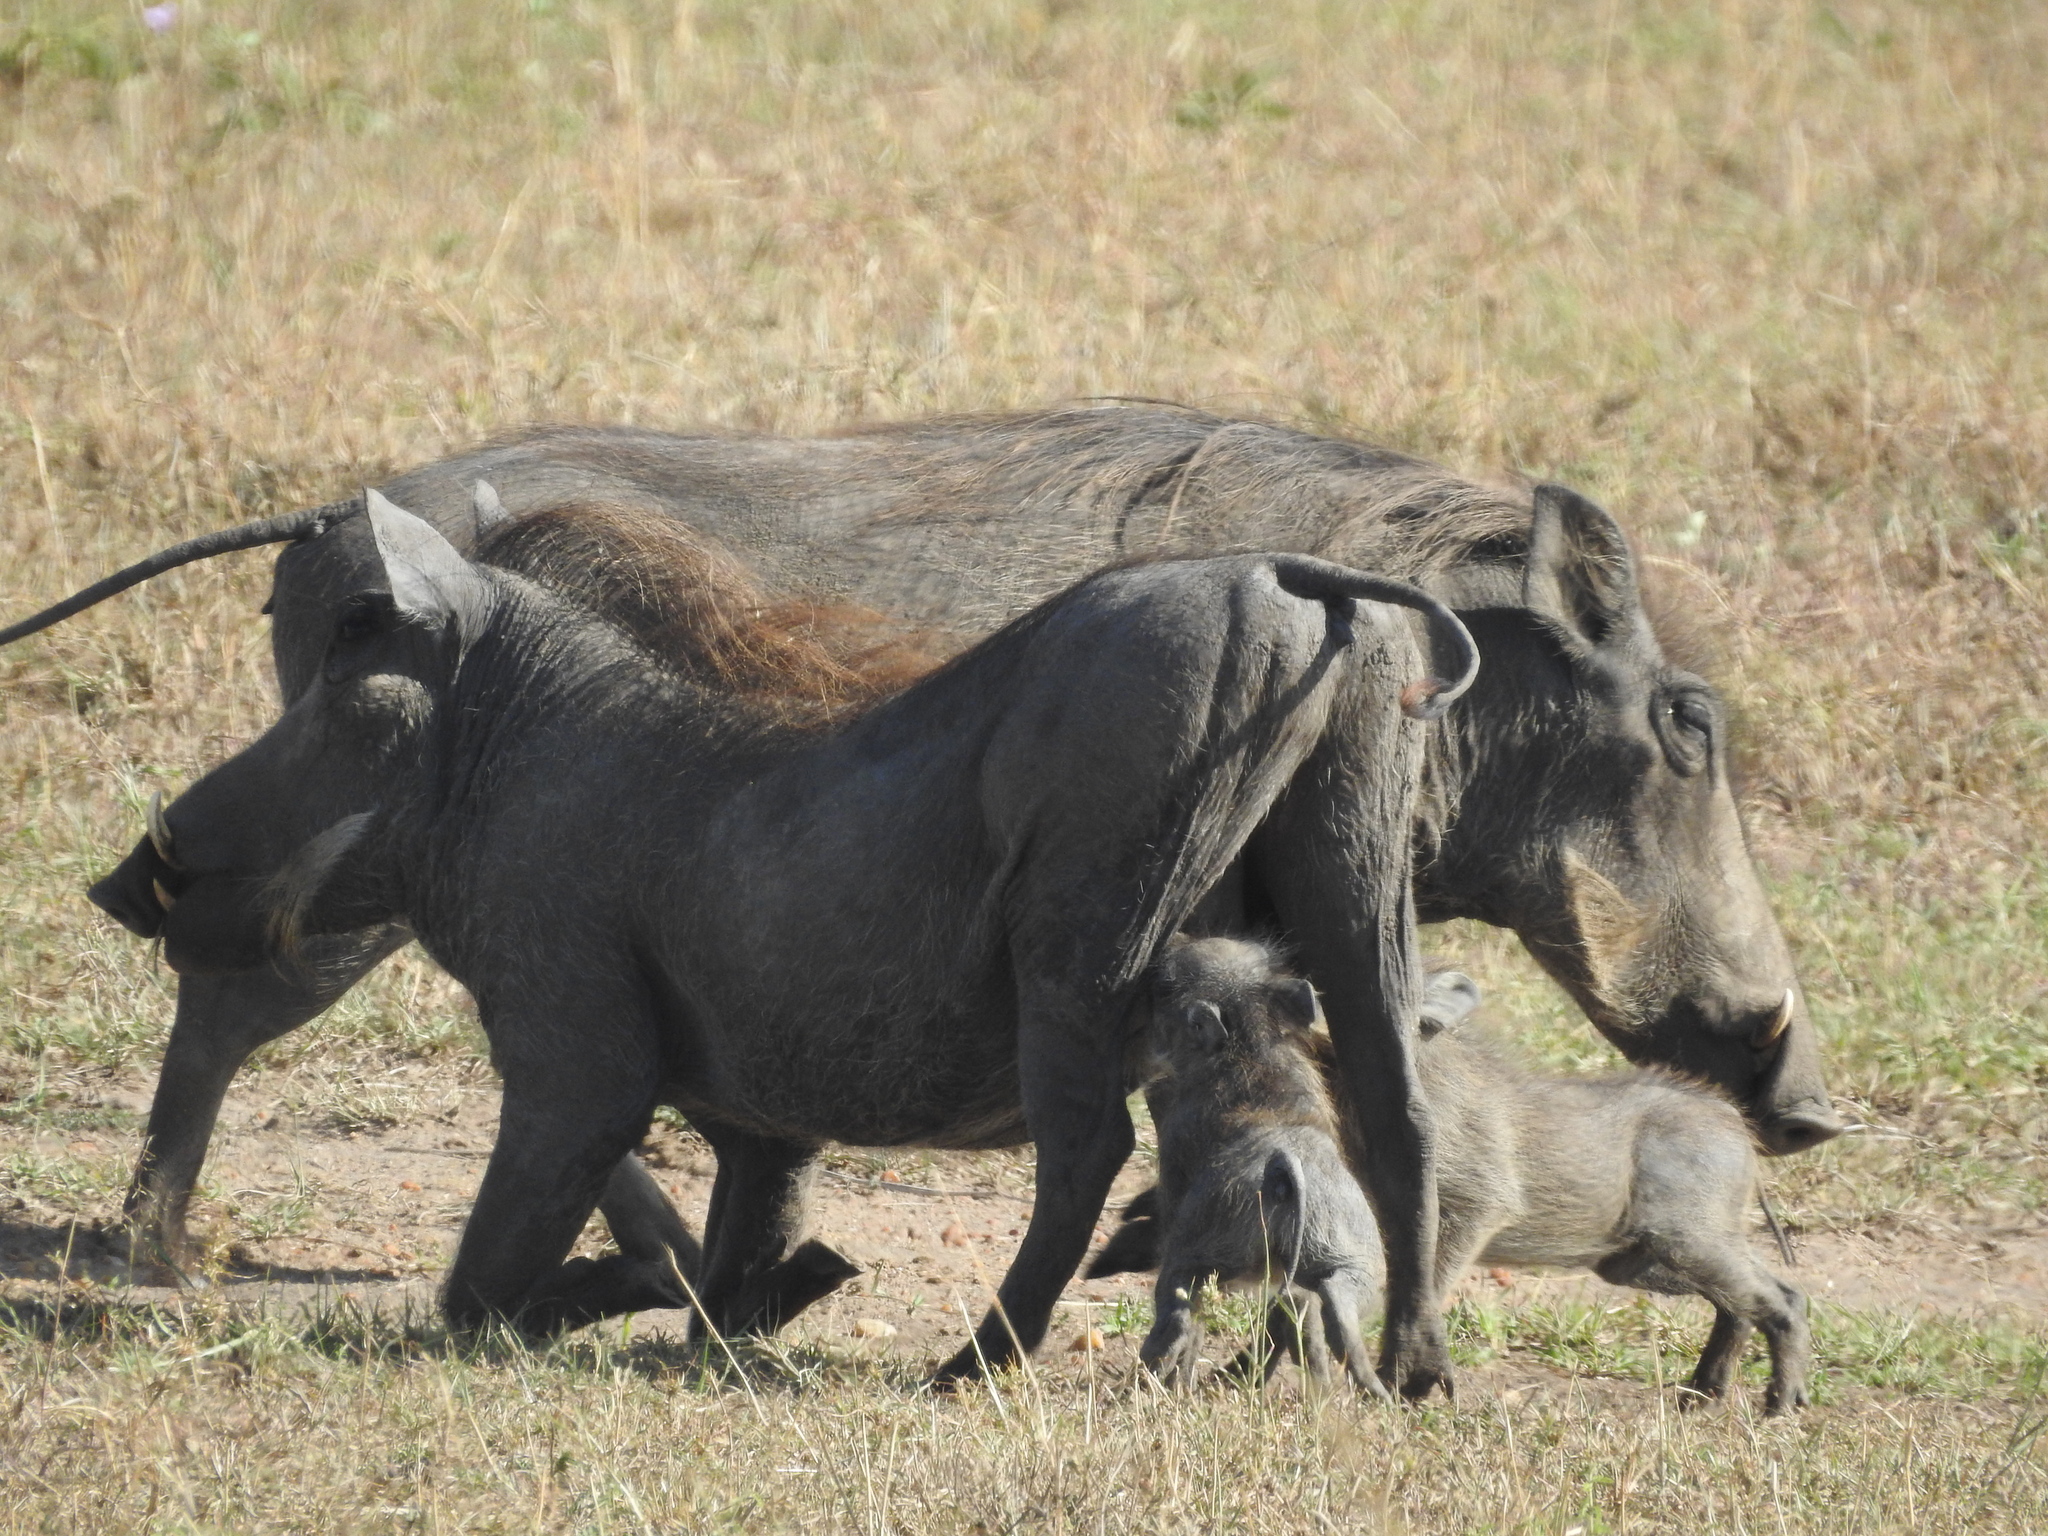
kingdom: Animalia
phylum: Chordata
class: Mammalia
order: Artiodactyla
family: Suidae
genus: Phacochoerus
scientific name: Phacochoerus africanus
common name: Common warthog
